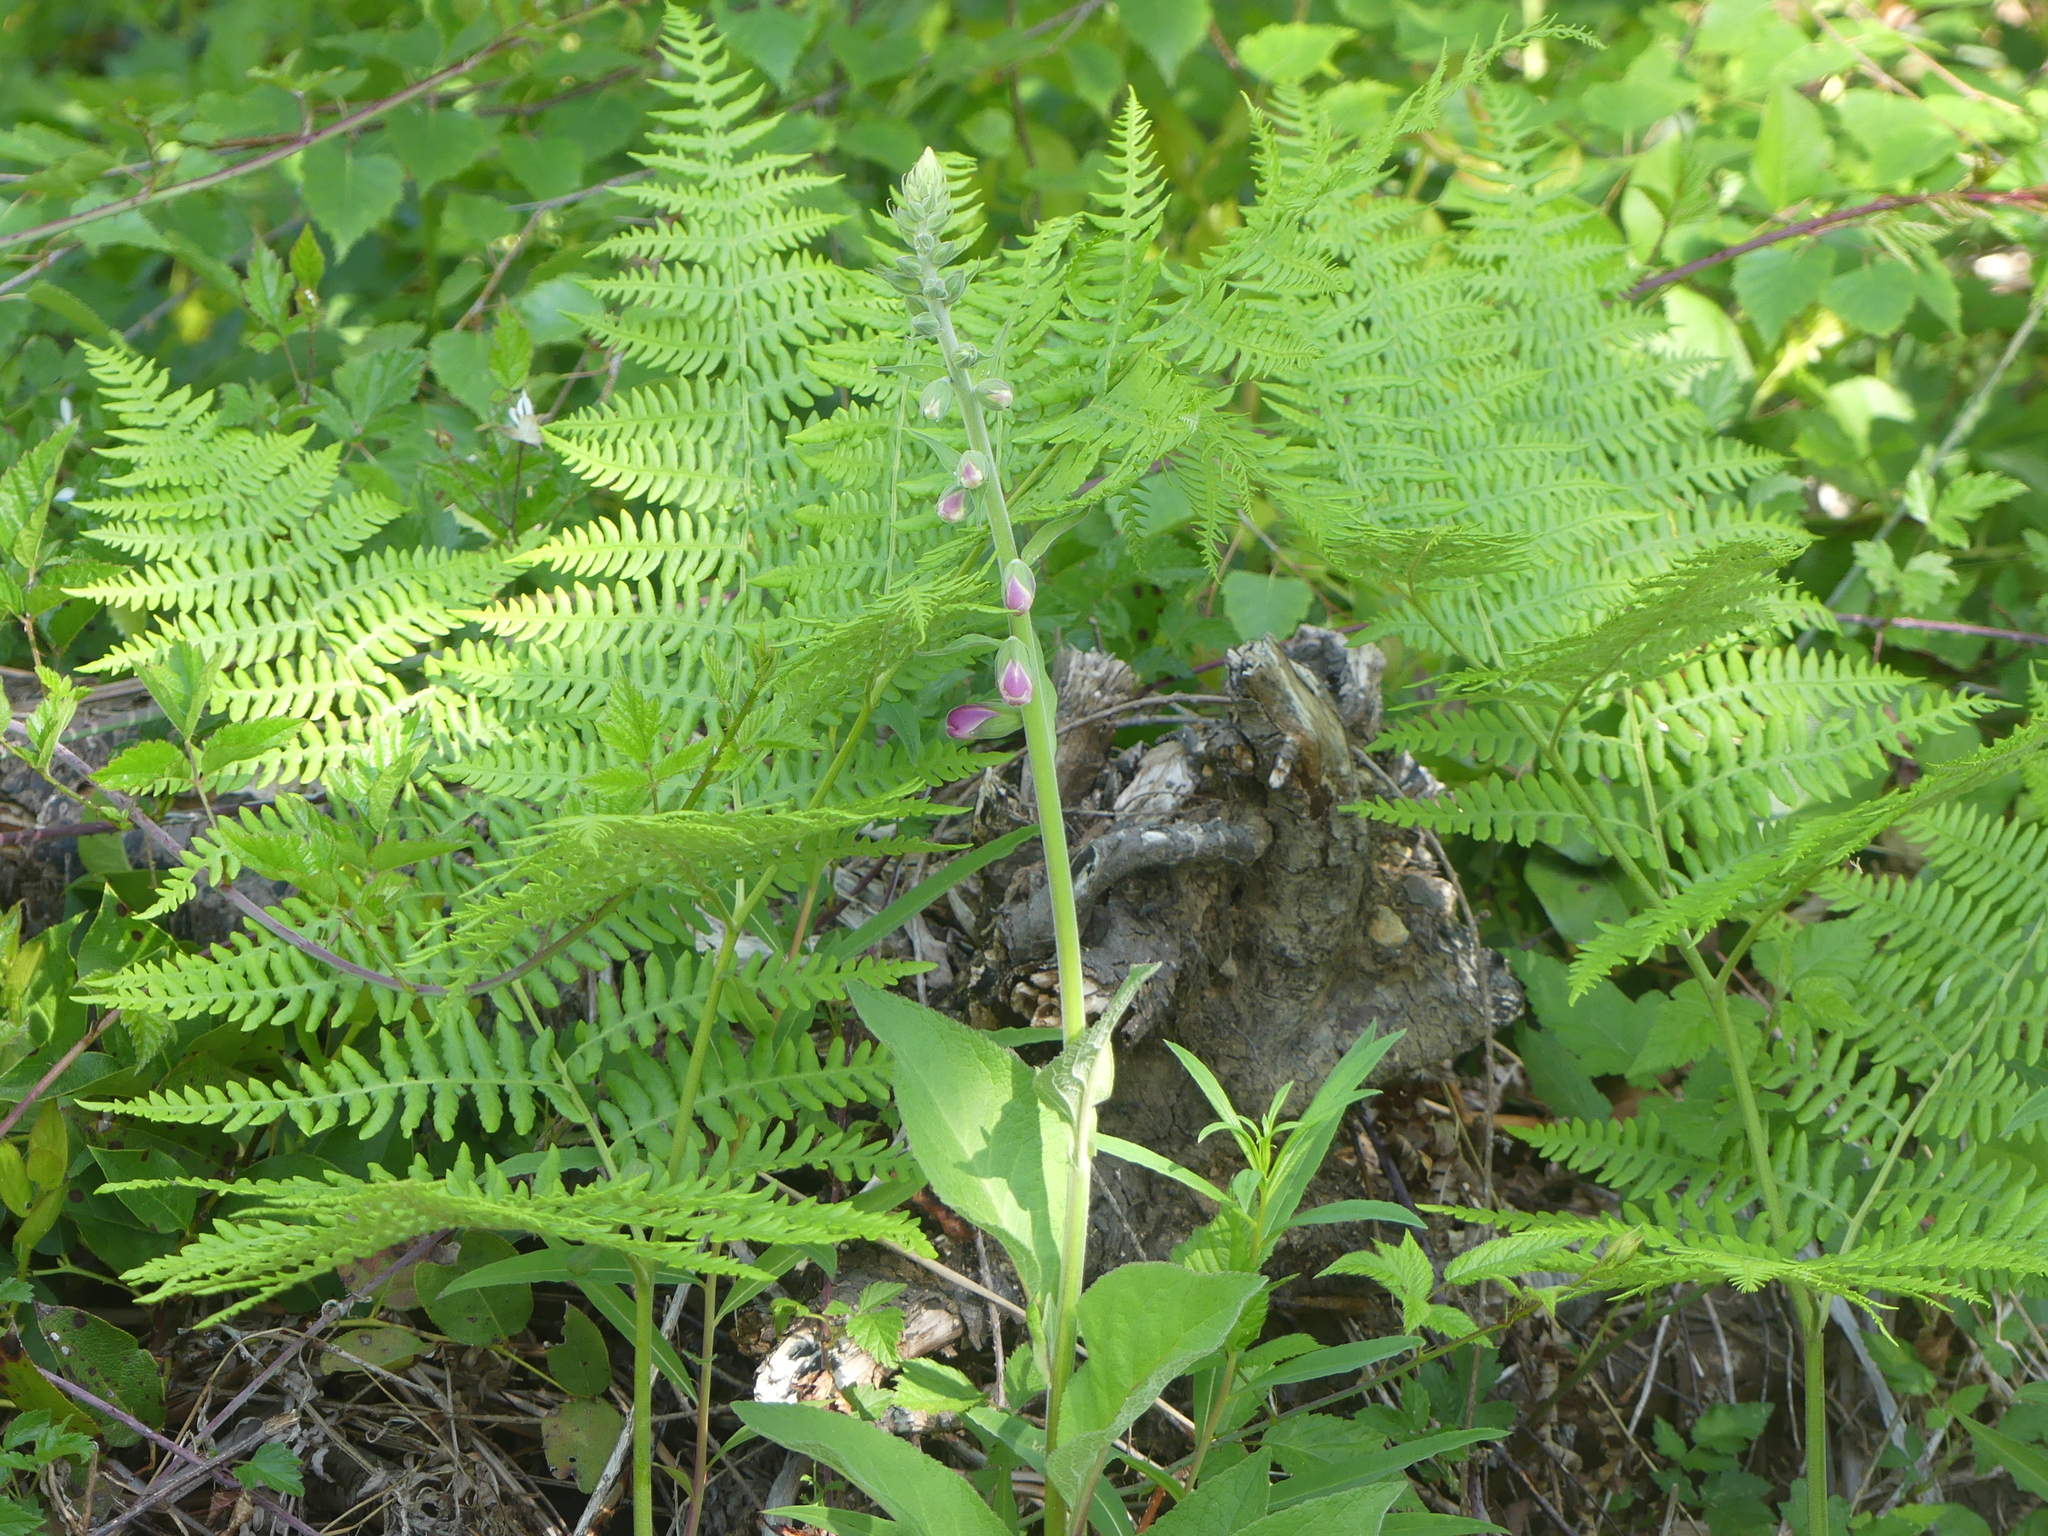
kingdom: Plantae
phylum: Tracheophyta
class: Magnoliopsida
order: Lamiales
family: Plantaginaceae
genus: Digitalis
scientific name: Digitalis purpurea
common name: Foxglove
